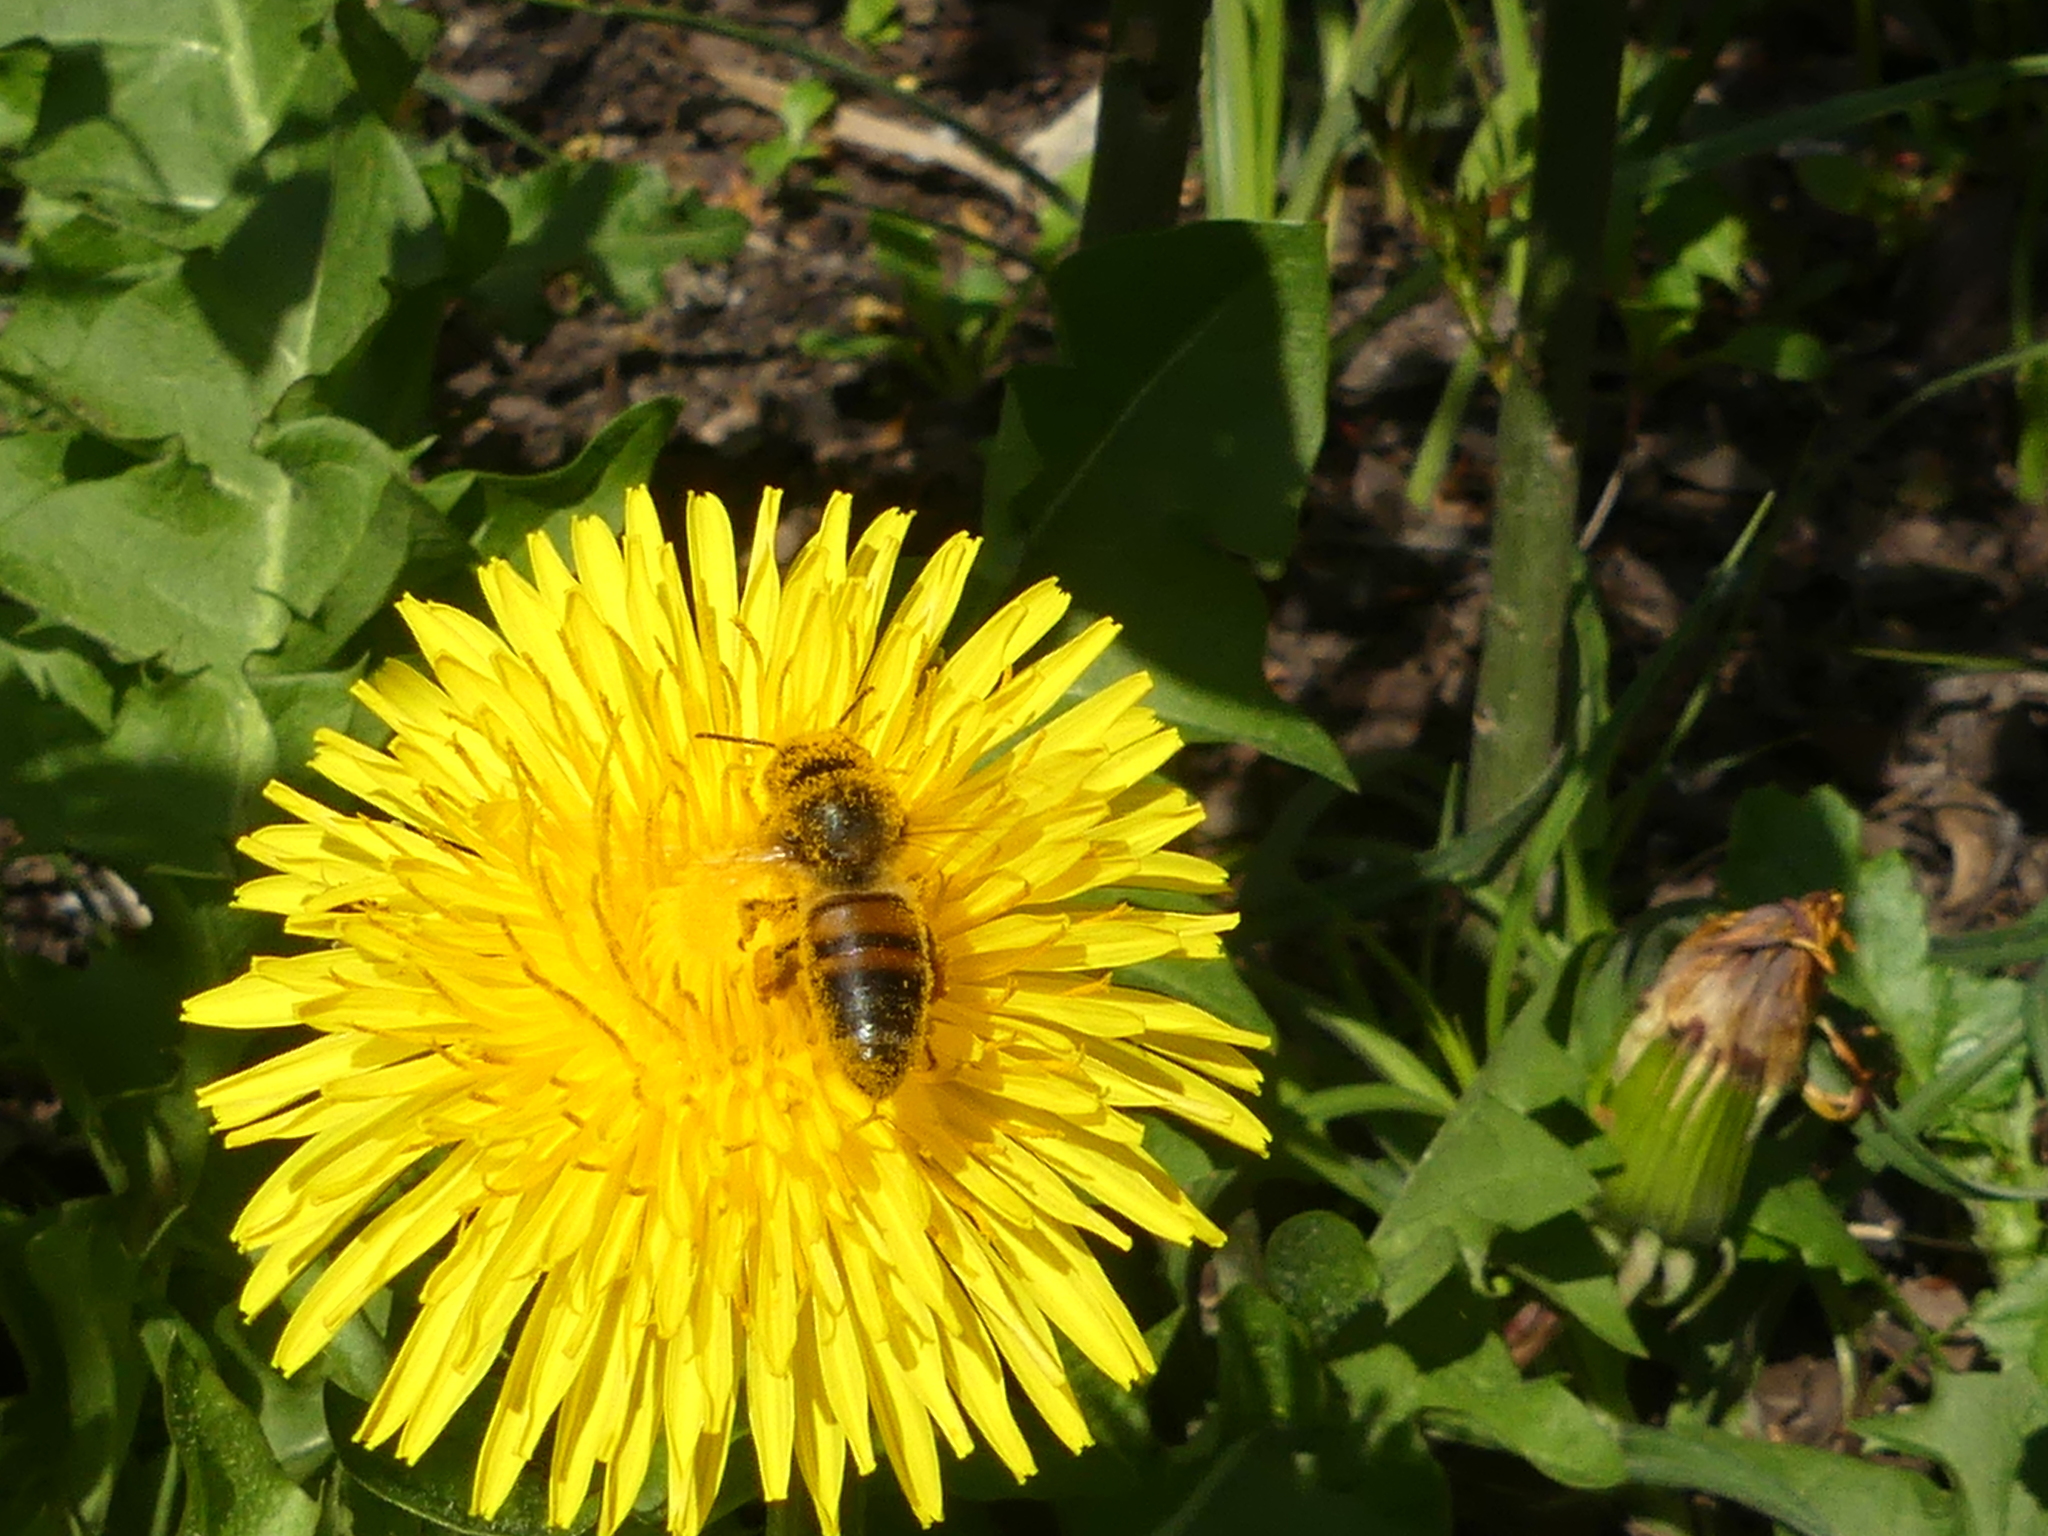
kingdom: Animalia
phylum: Arthropoda
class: Insecta
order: Hymenoptera
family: Apidae
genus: Apis
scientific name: Apis mellifera
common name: Honey bee
